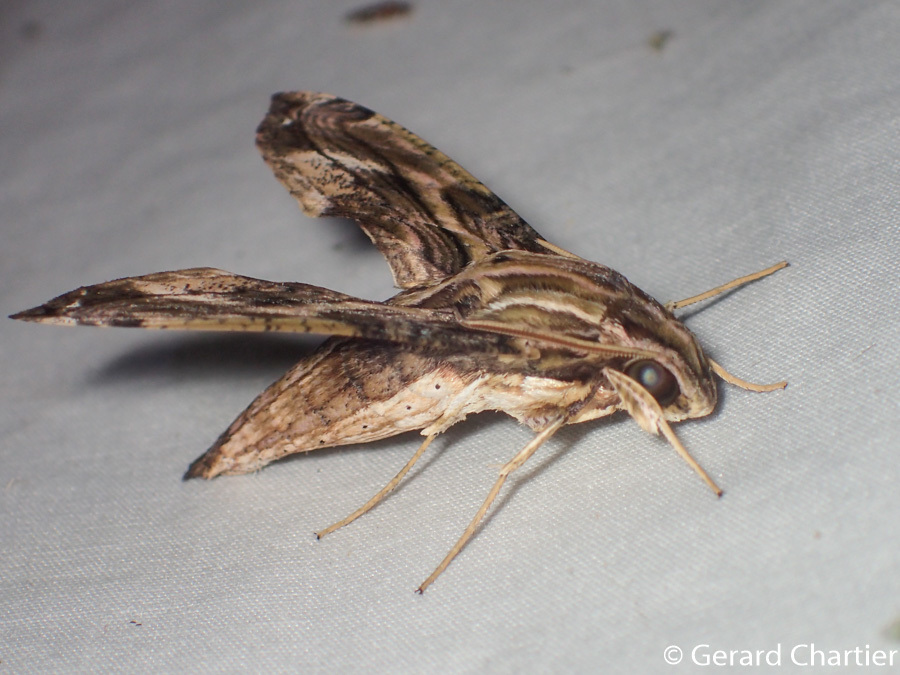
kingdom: Animalia
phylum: Arthropoda
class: Insecta
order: Lepidoptera
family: Sphingidae
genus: Eupanacra
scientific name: Eupanacra variolosa
